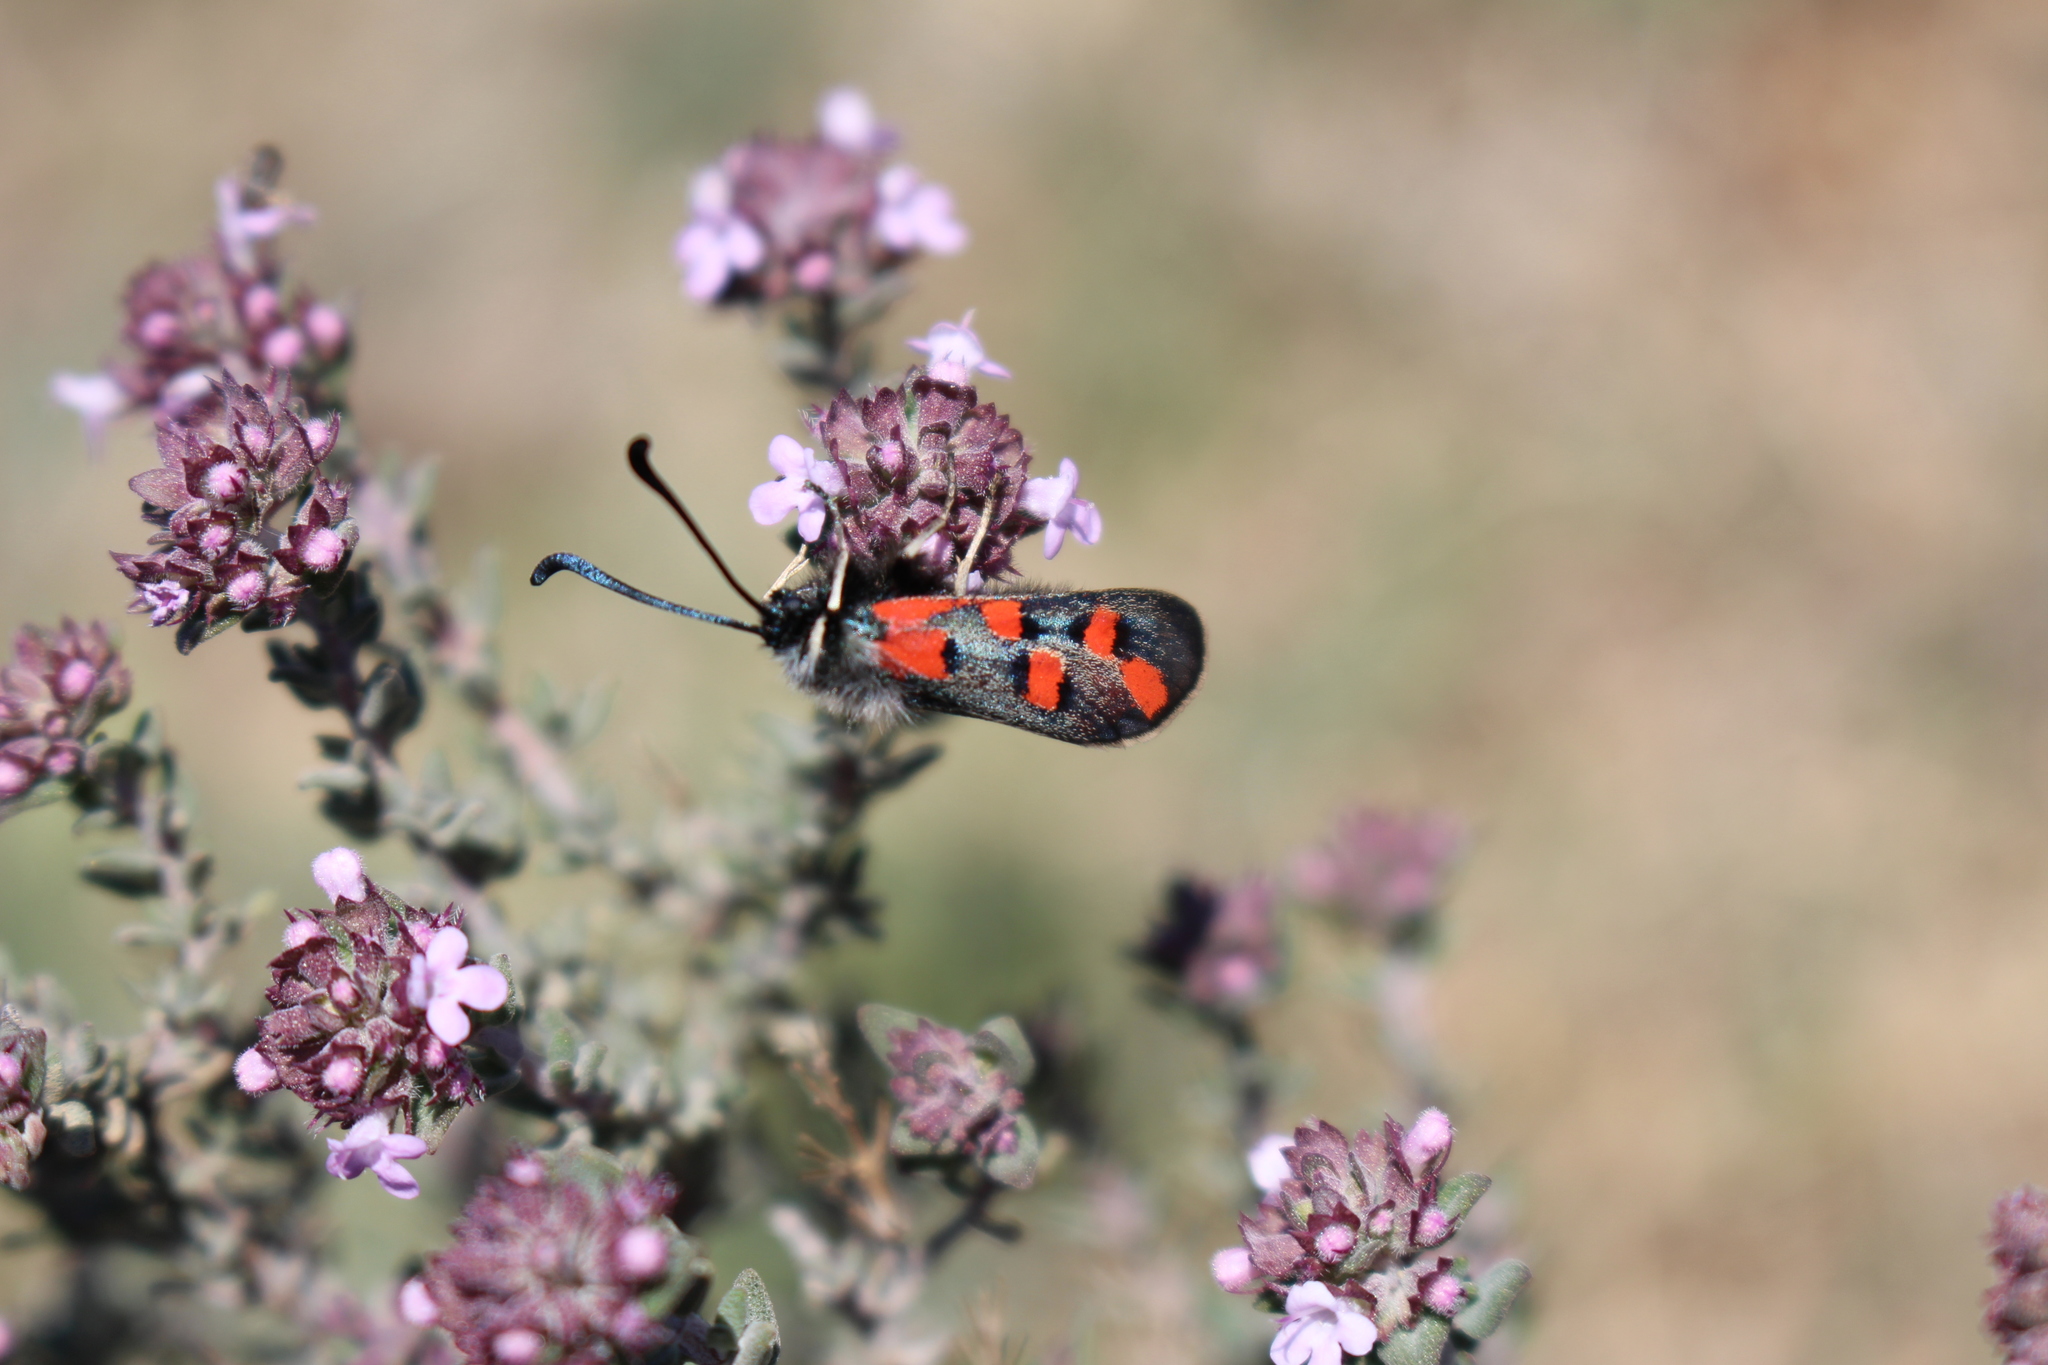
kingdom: Animalia
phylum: Arthropoda
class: Insecta
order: Lepidoptera
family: Zygaenidae
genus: Zygaena
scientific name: Zygaena rhadamanthus
